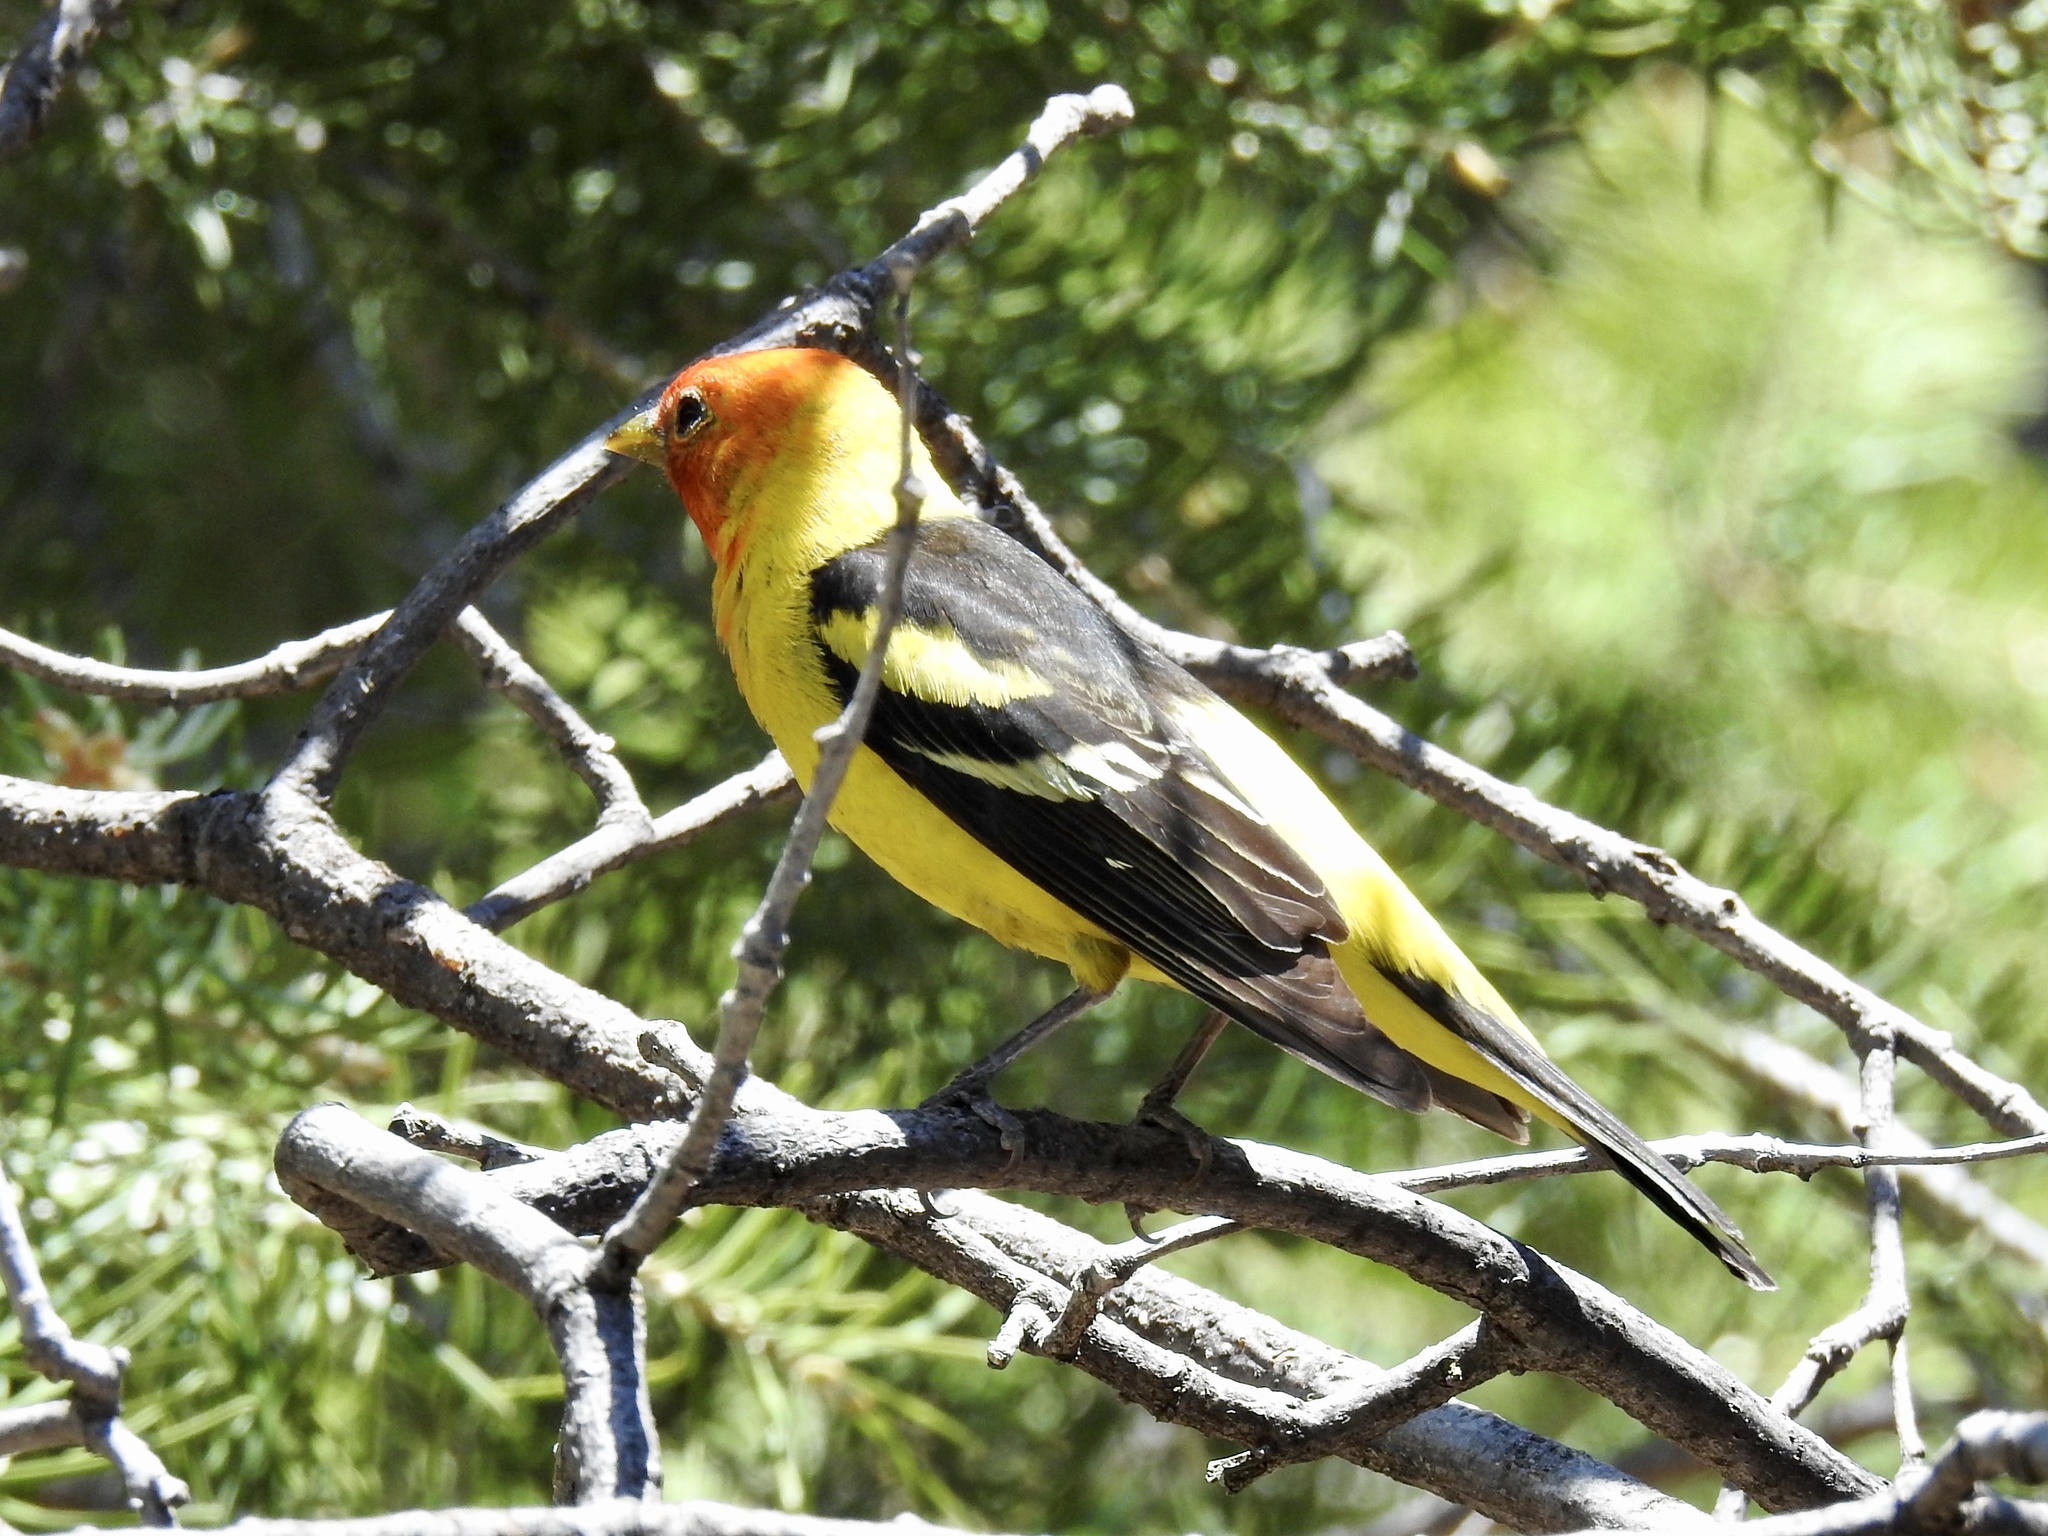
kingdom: Animalia
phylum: Chordata
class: Aves
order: Passeriformes
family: Cardinalidae
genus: Piranga
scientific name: Piranga ludoviciana
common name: Western tanager
